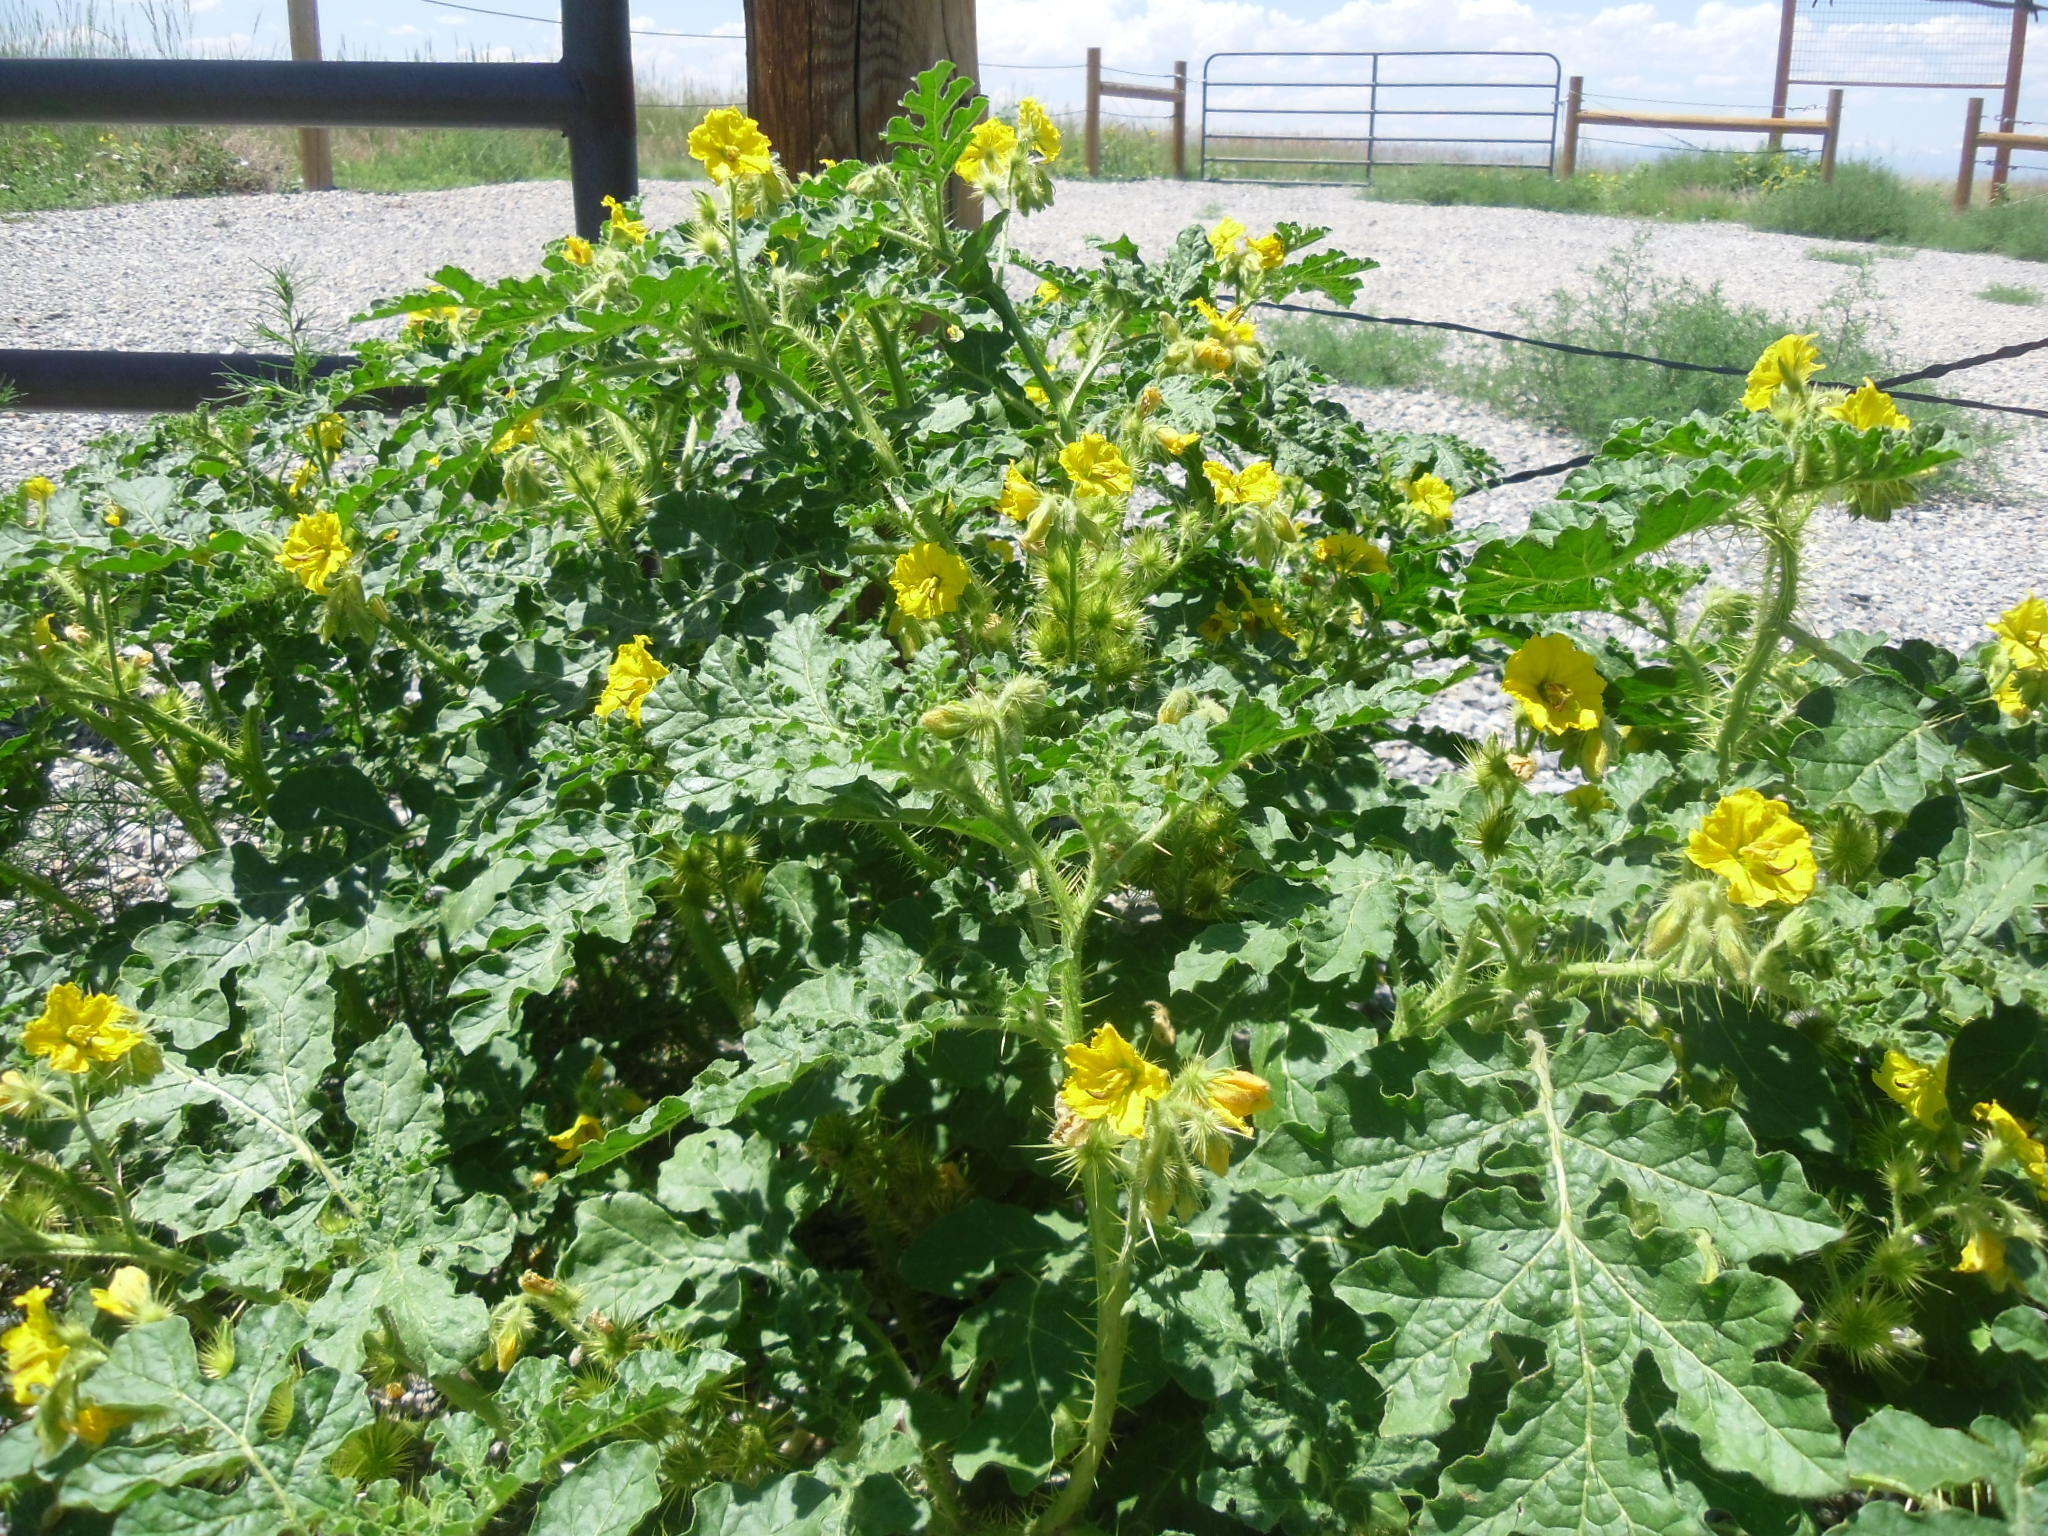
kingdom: Plantae
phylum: Tracheophyta
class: Magnoliopsida
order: Solanales
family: Solanaceae
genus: Solanum
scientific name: Solanum angustifolium
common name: Buffalobur nightshade
